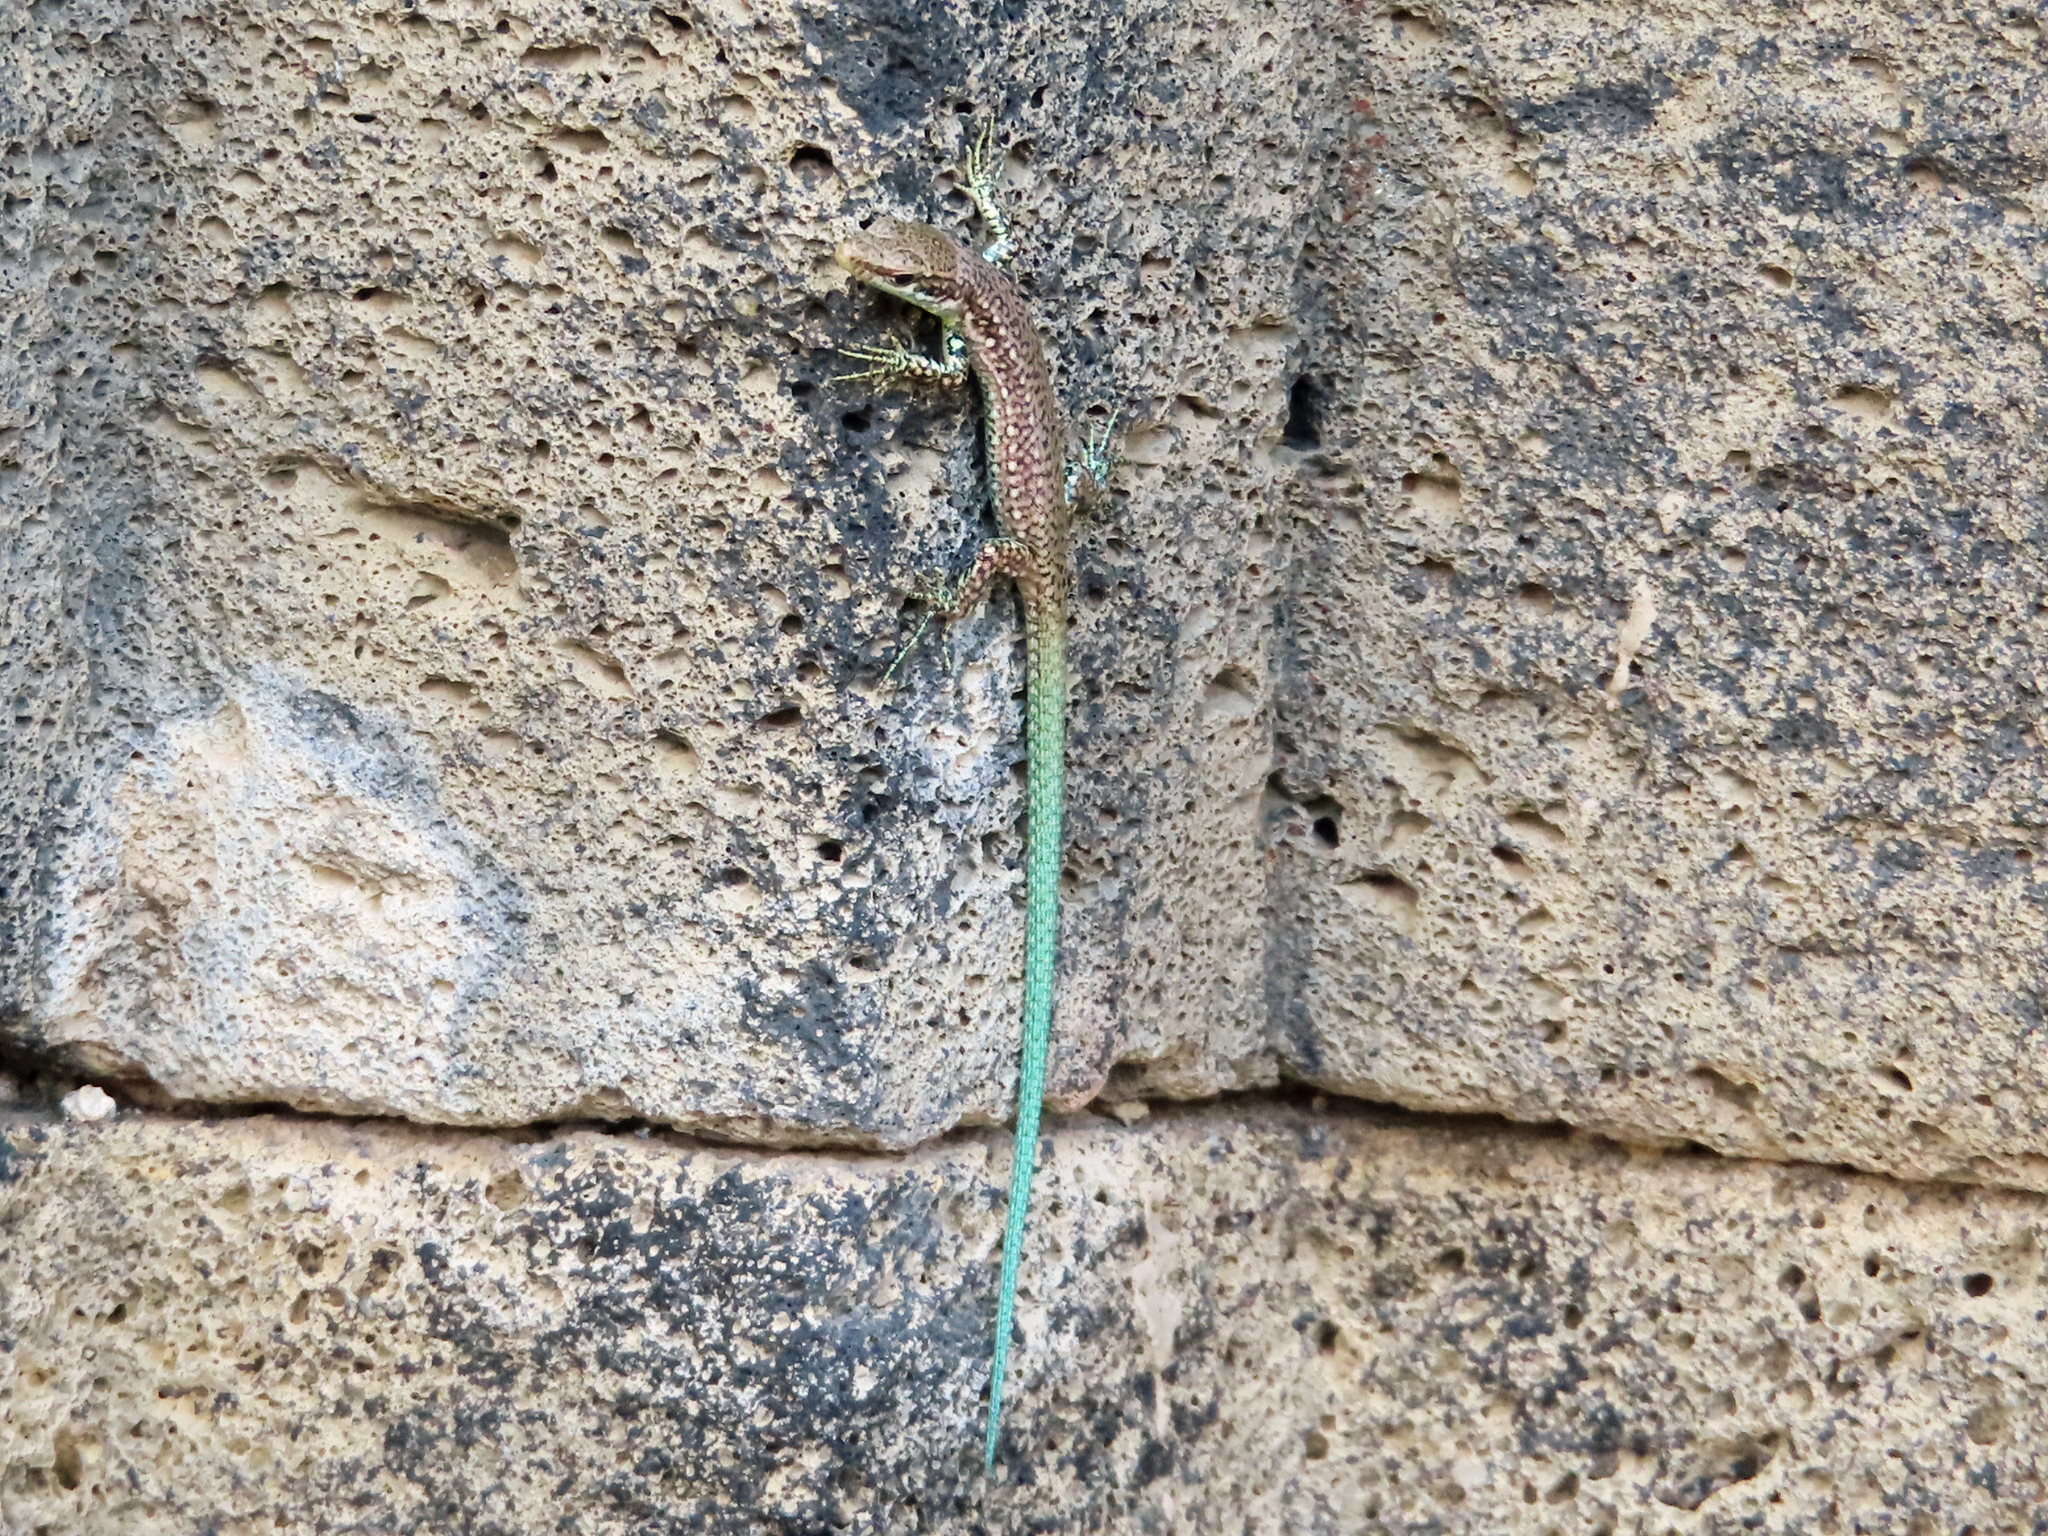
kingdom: Animalia
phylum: Chordata
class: Squamata
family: Lacertidae
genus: Darevskia
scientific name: Darevskia raddei
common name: Radde's lizard
